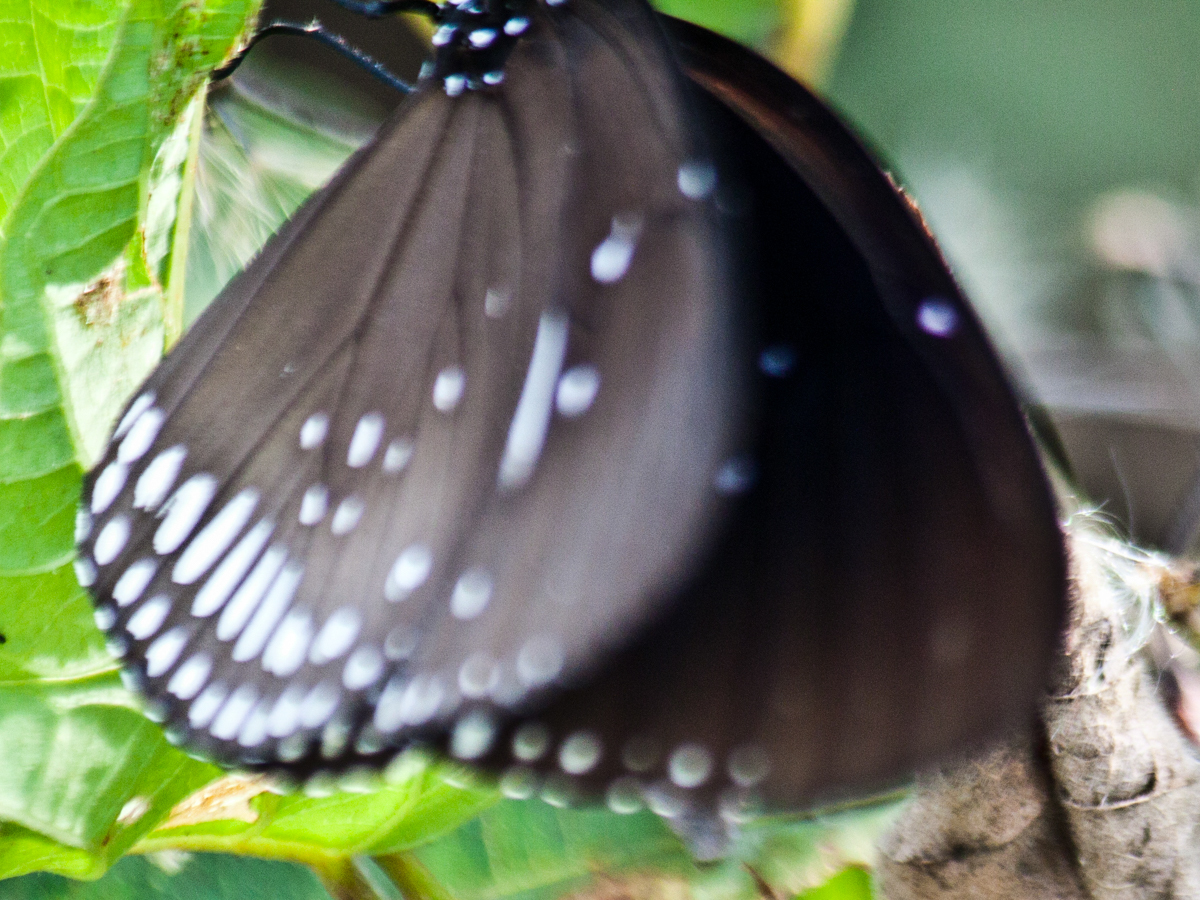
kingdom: Animalia
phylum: Arthropoda
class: Insecta
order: Lepidoptera
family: Nymphalidae
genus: Euploea
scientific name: Euploea midamus
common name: Blue-spotted crow butterfly
